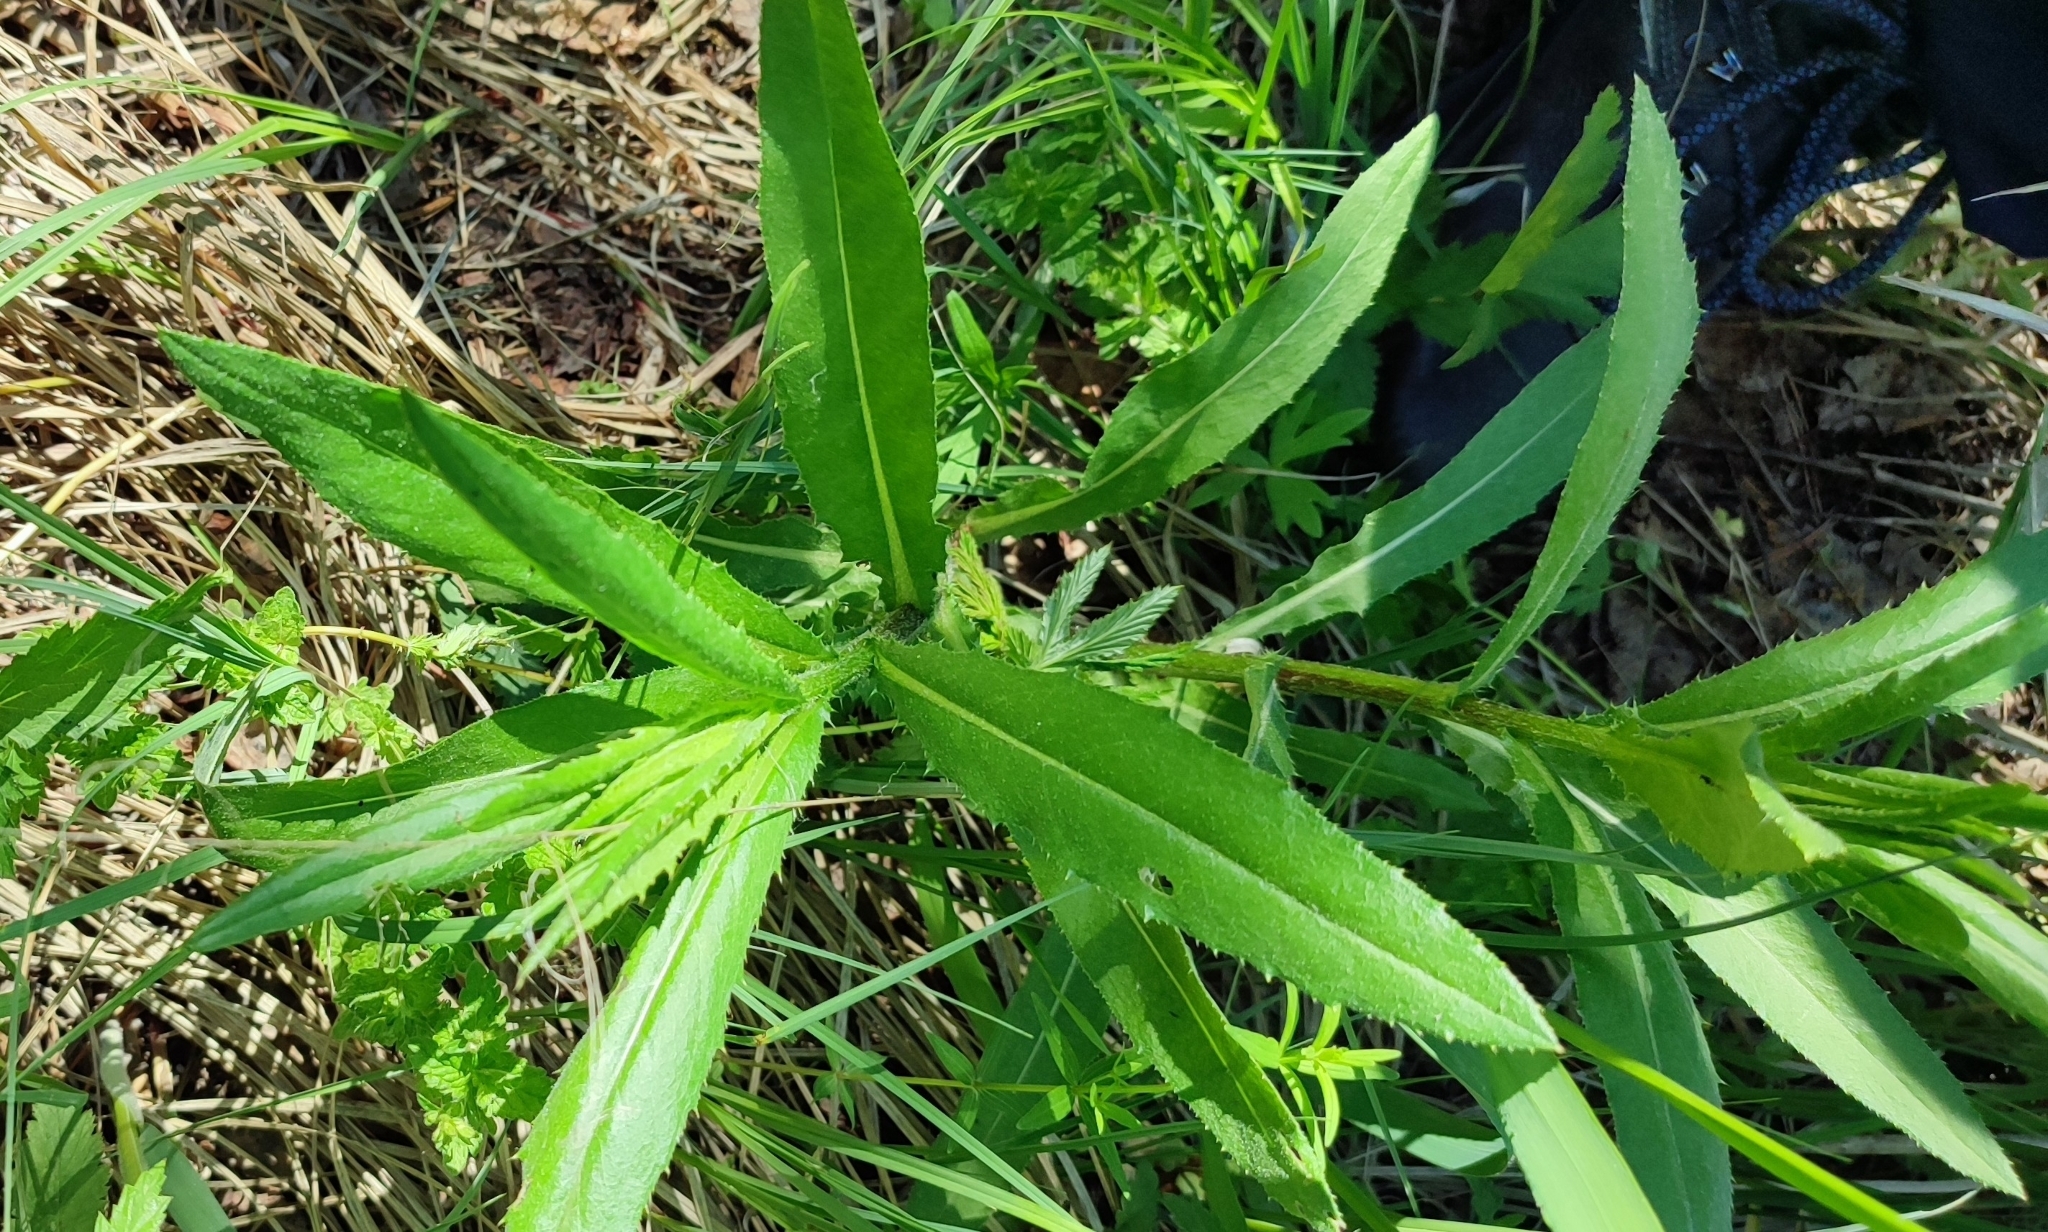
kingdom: Plantae
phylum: Tracheophyta
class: Magnoliopsida
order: Asterales
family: Asteraceae
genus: Cirsium
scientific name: Cirsium arvense
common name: Creeping thistle
